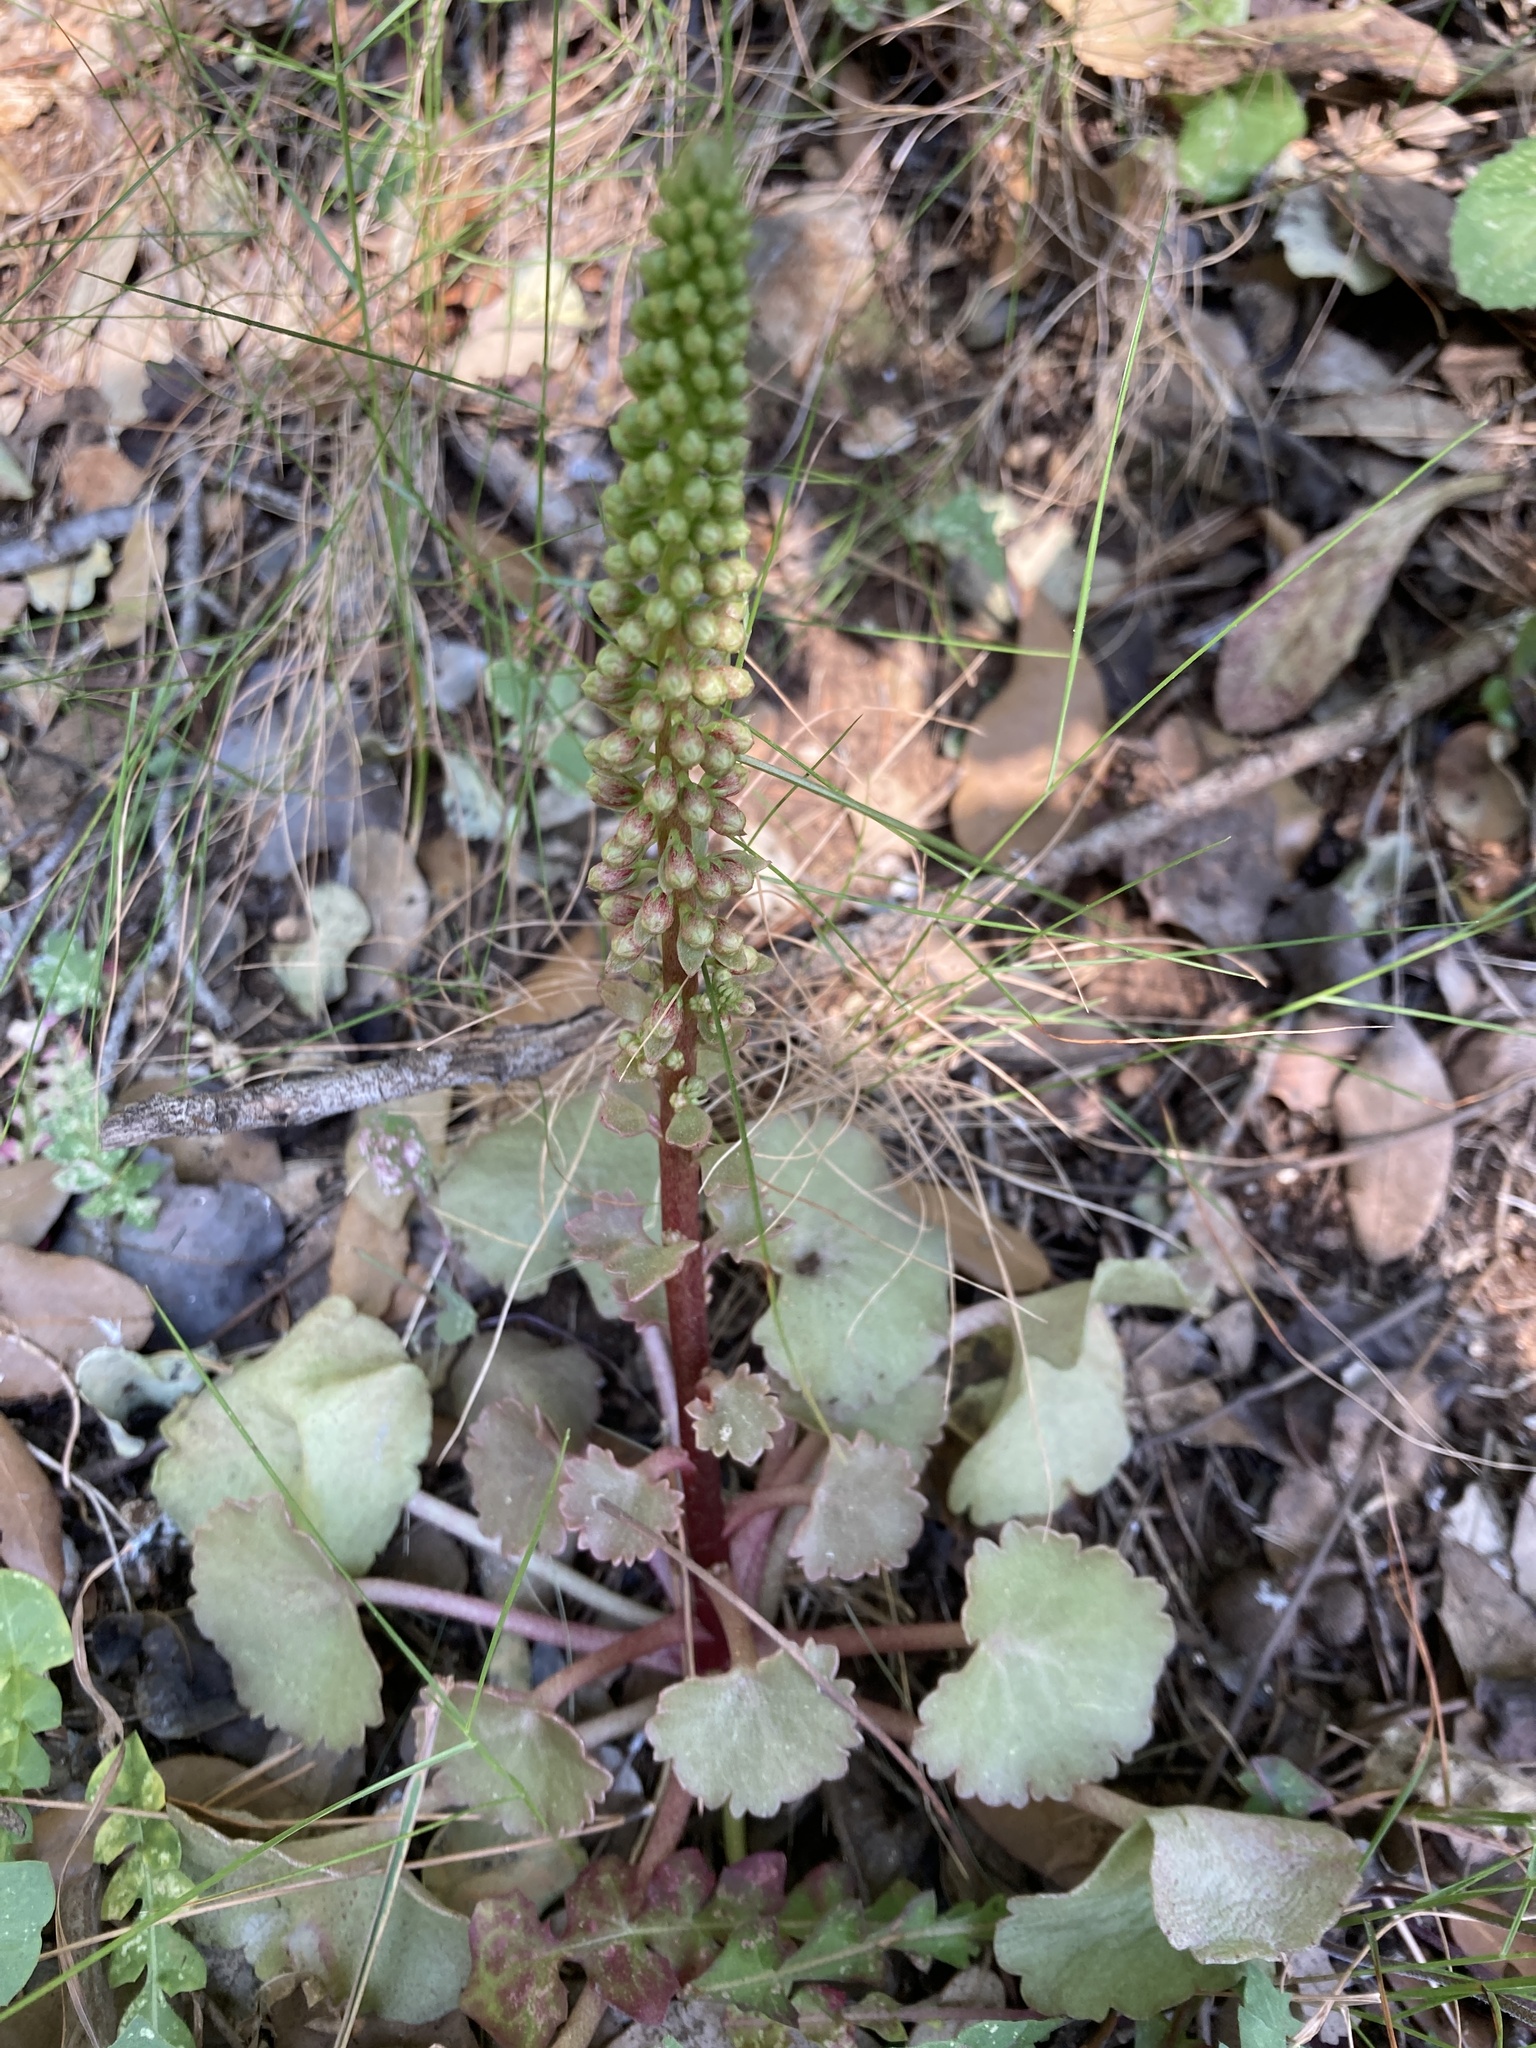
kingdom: Plantae
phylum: Tracheophyta
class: Magnoliopsida
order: Saxifragales
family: Crassulaceae
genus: Umbilicus
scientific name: Umbilicus rupestris
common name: Navelwort
